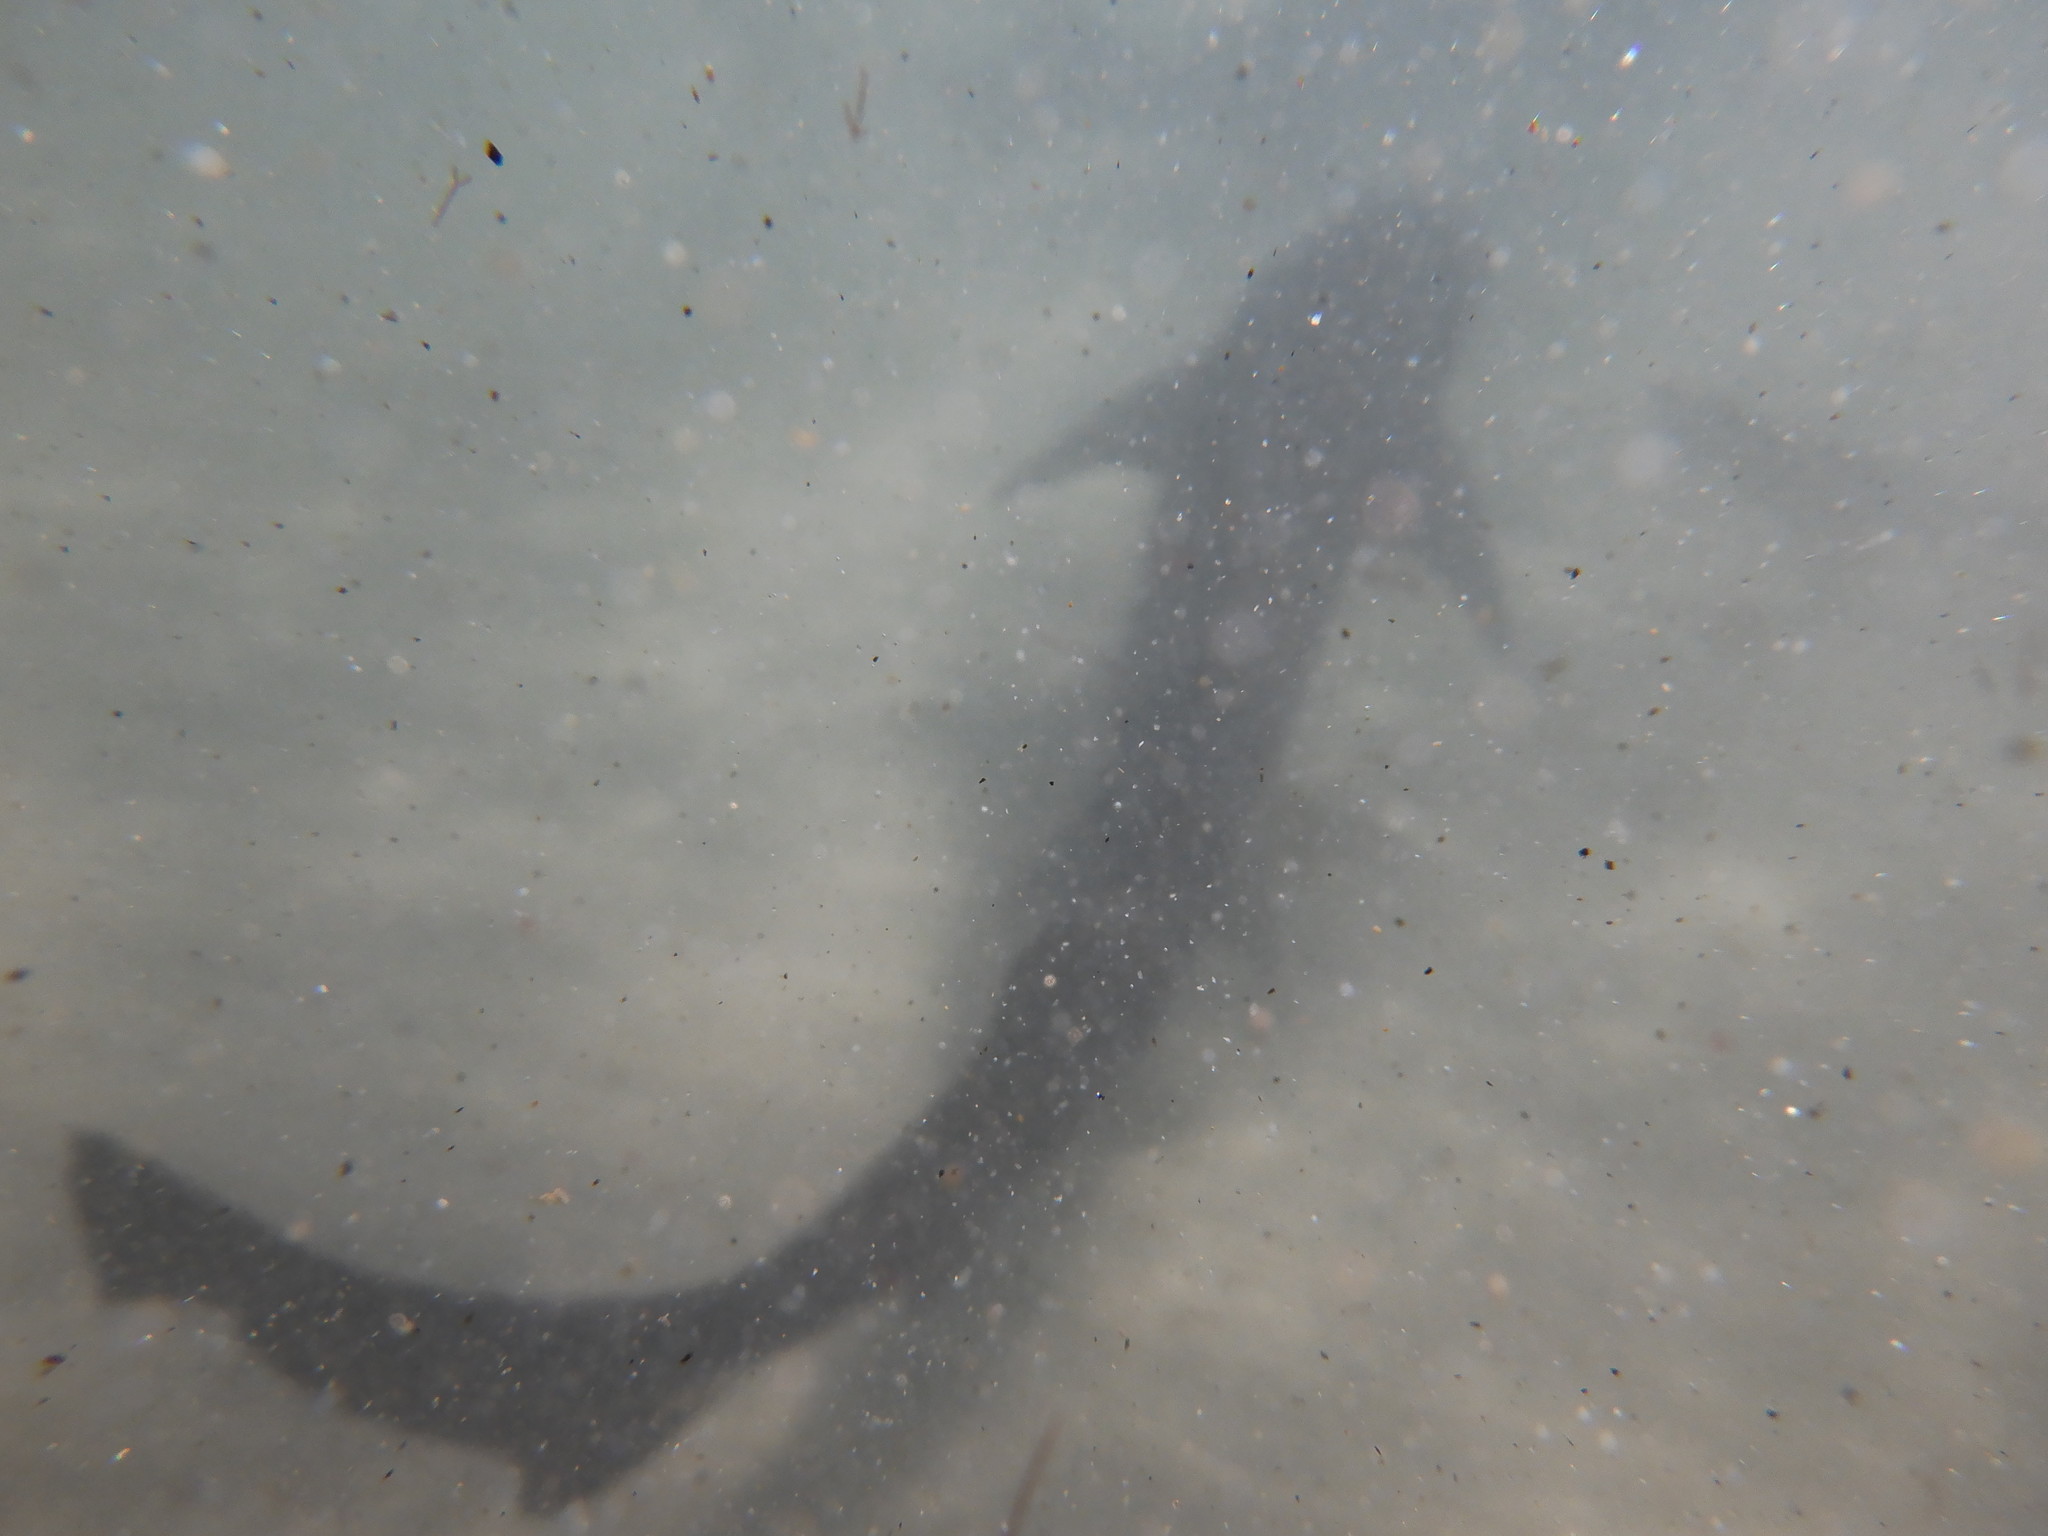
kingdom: Animalia
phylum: Chordata
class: Elasmobranchii
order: Carcharhiniformes
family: Triakidae
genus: Triakis
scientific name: Triakis semifasciata
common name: Leopard shark
